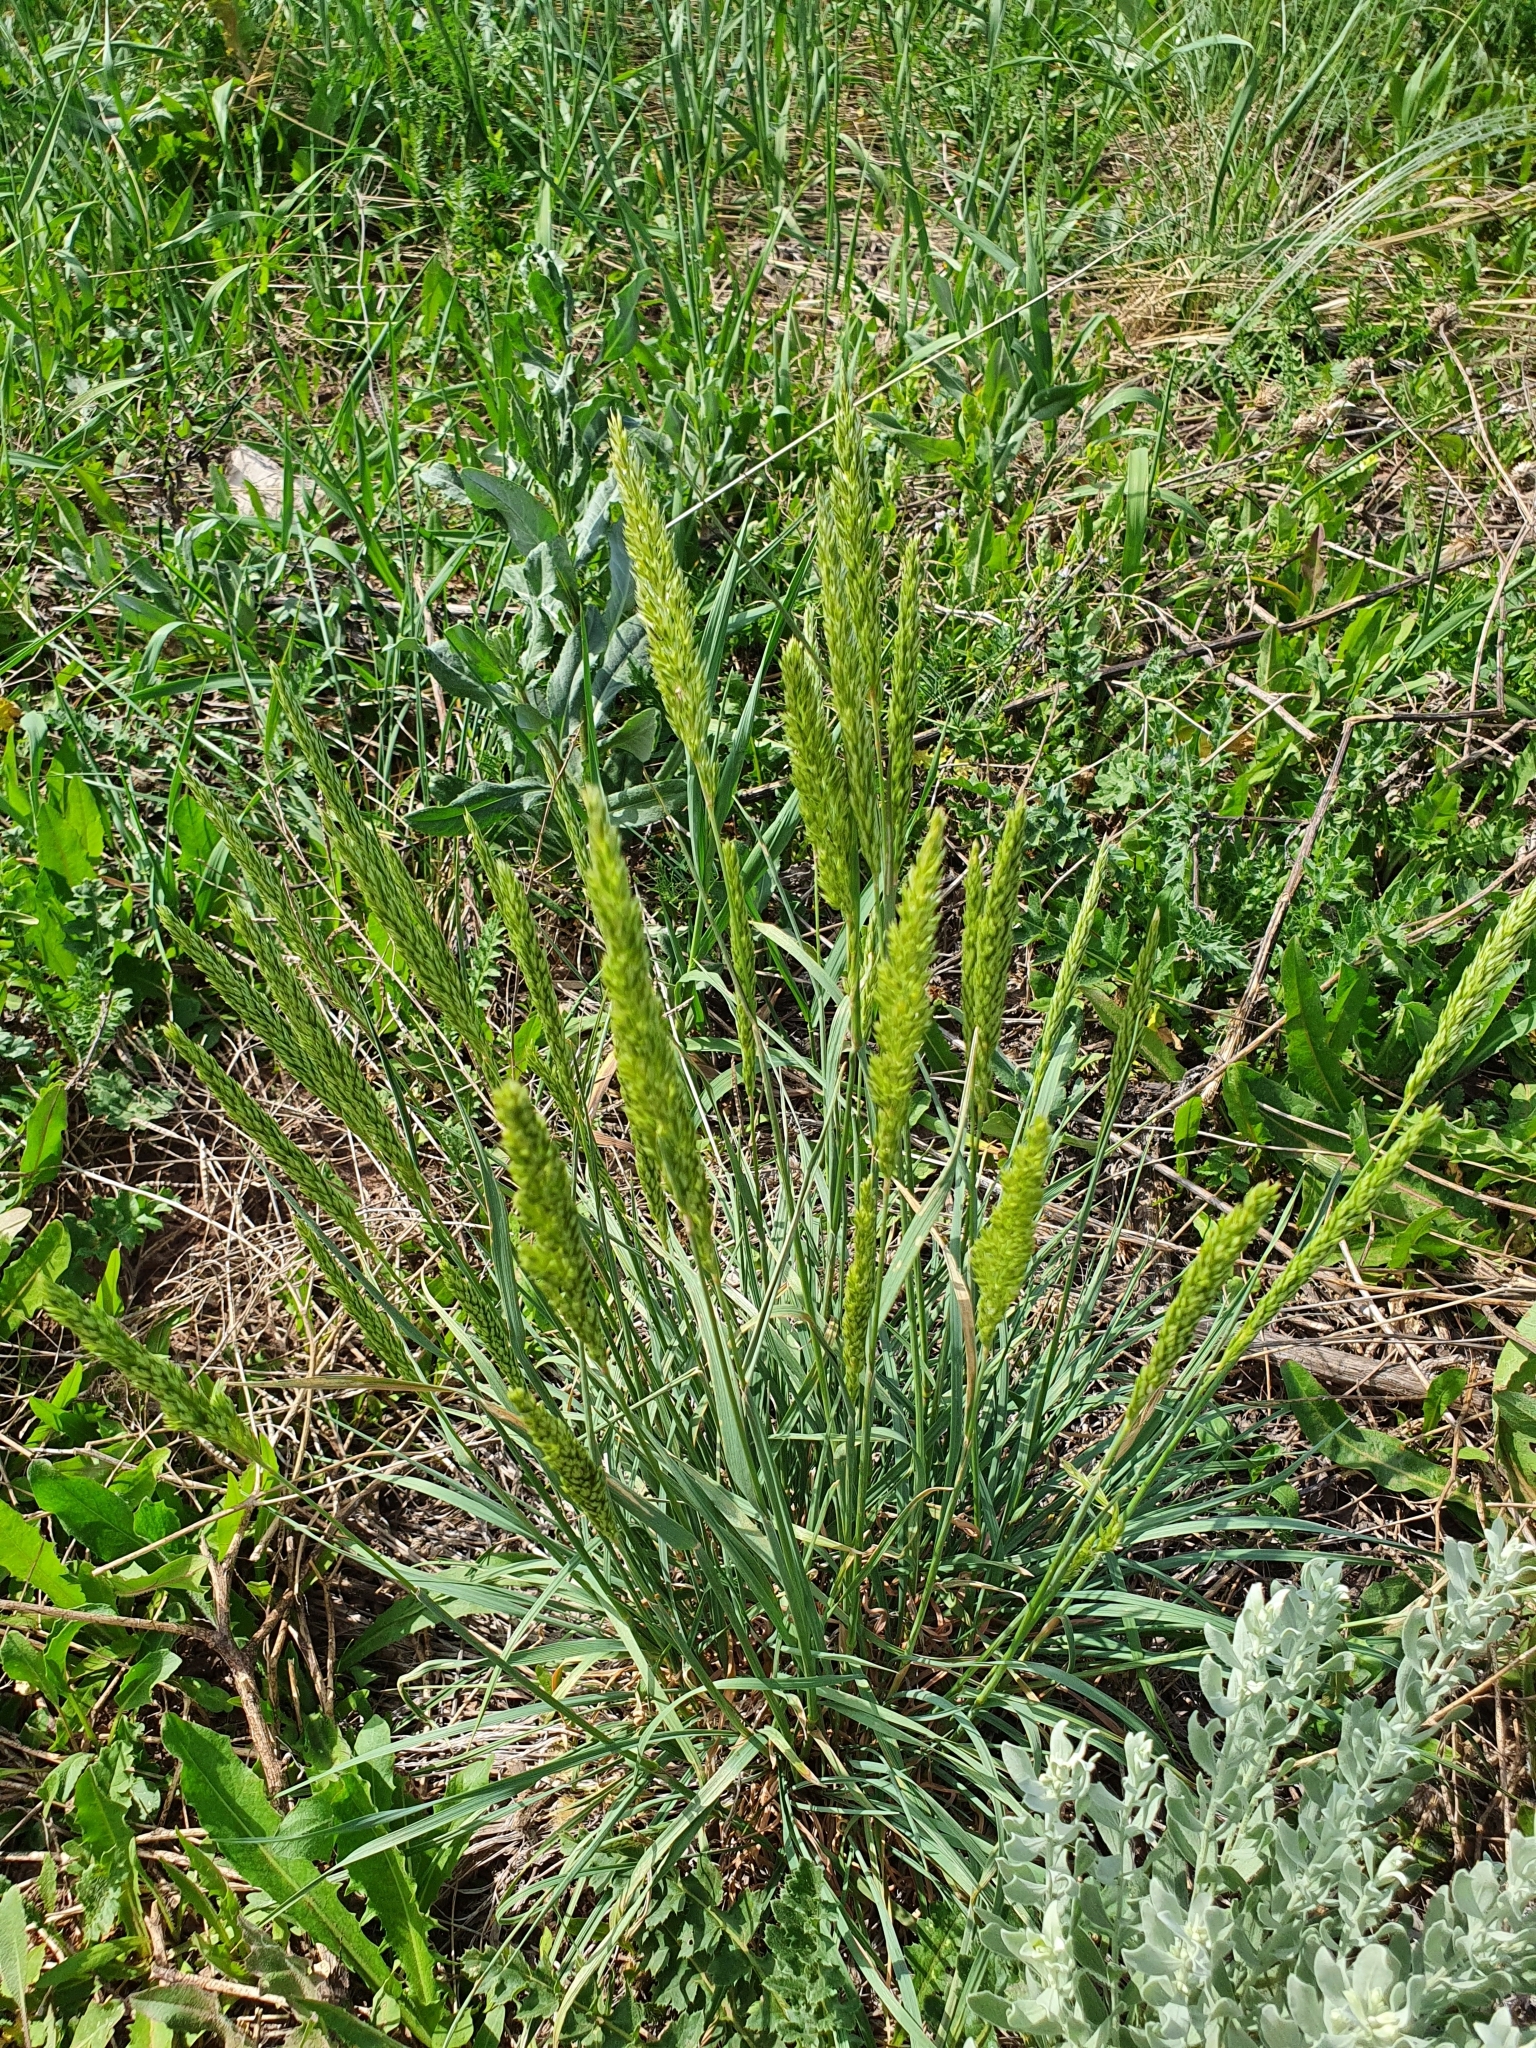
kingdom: Plantae
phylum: Tracheophyta
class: Liliopsida
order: Poales
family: Poaceae
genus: Koeleria
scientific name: Koeleria macrantha
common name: Crested hair-grass
